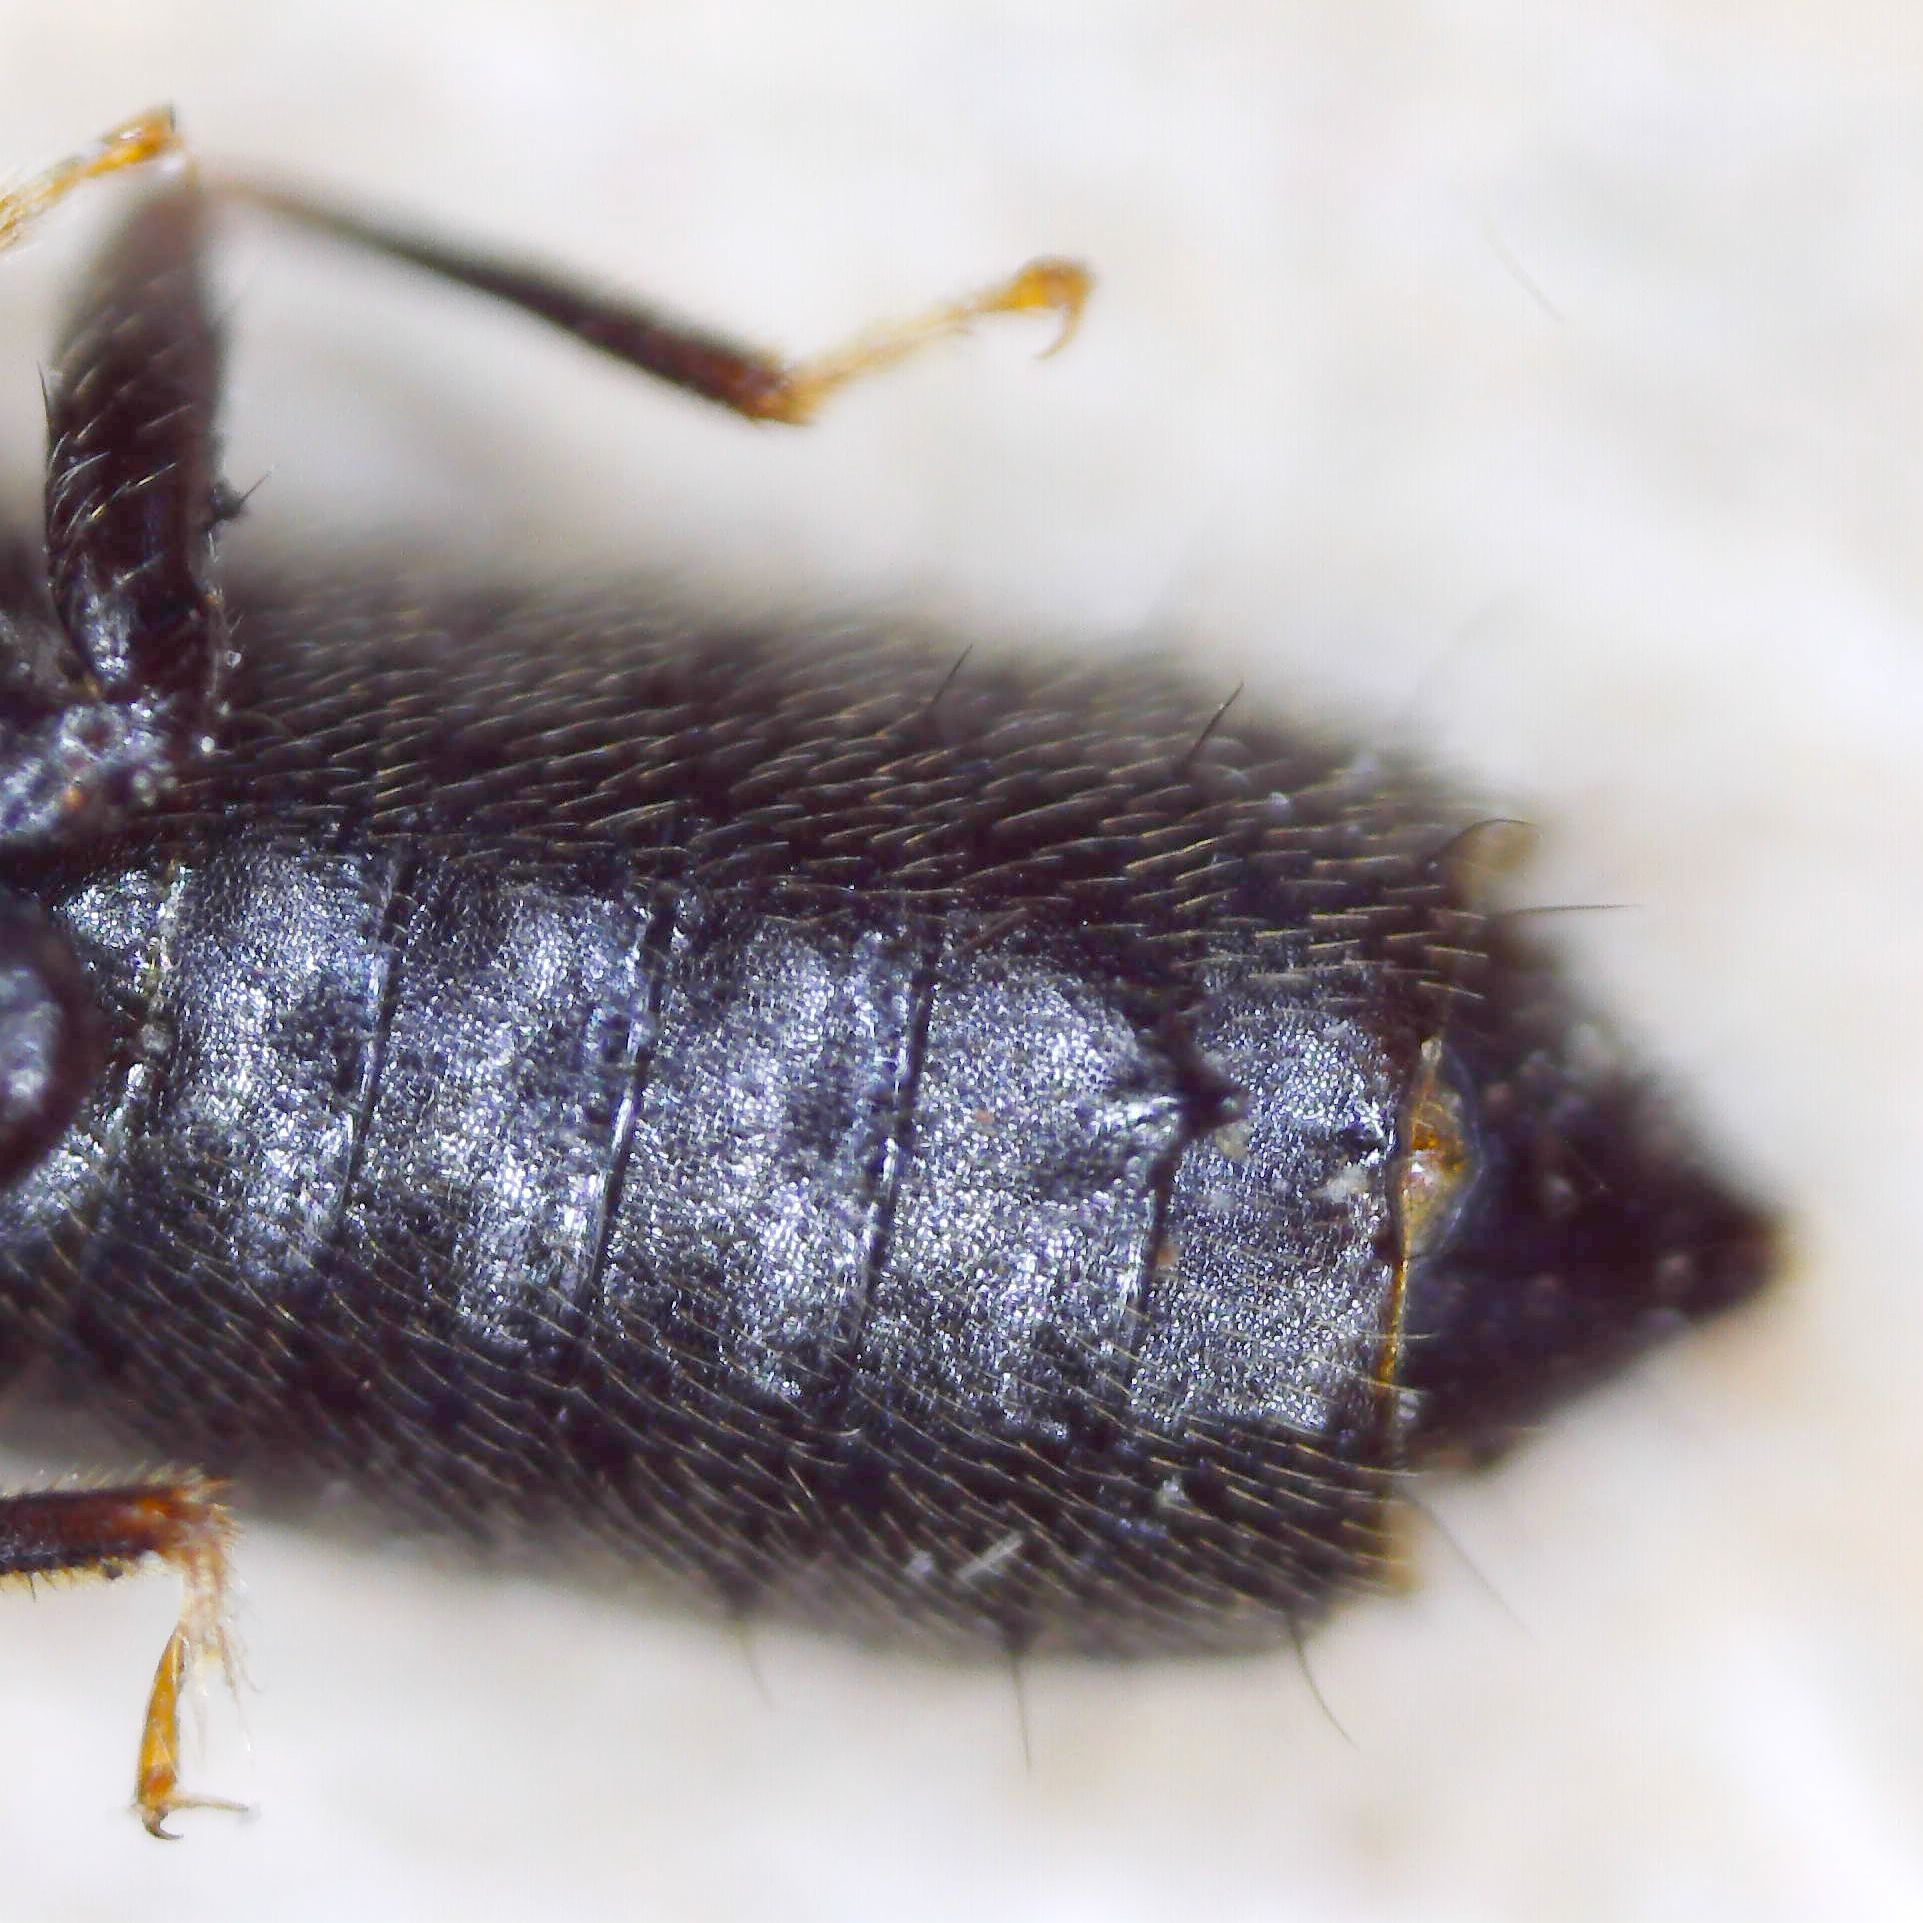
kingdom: Animalia
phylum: Arthropoda
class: Insecta
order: Coleoptera
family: Staphylinidae
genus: Anotylus
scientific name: Anotylus rugosus
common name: Rove beetle
